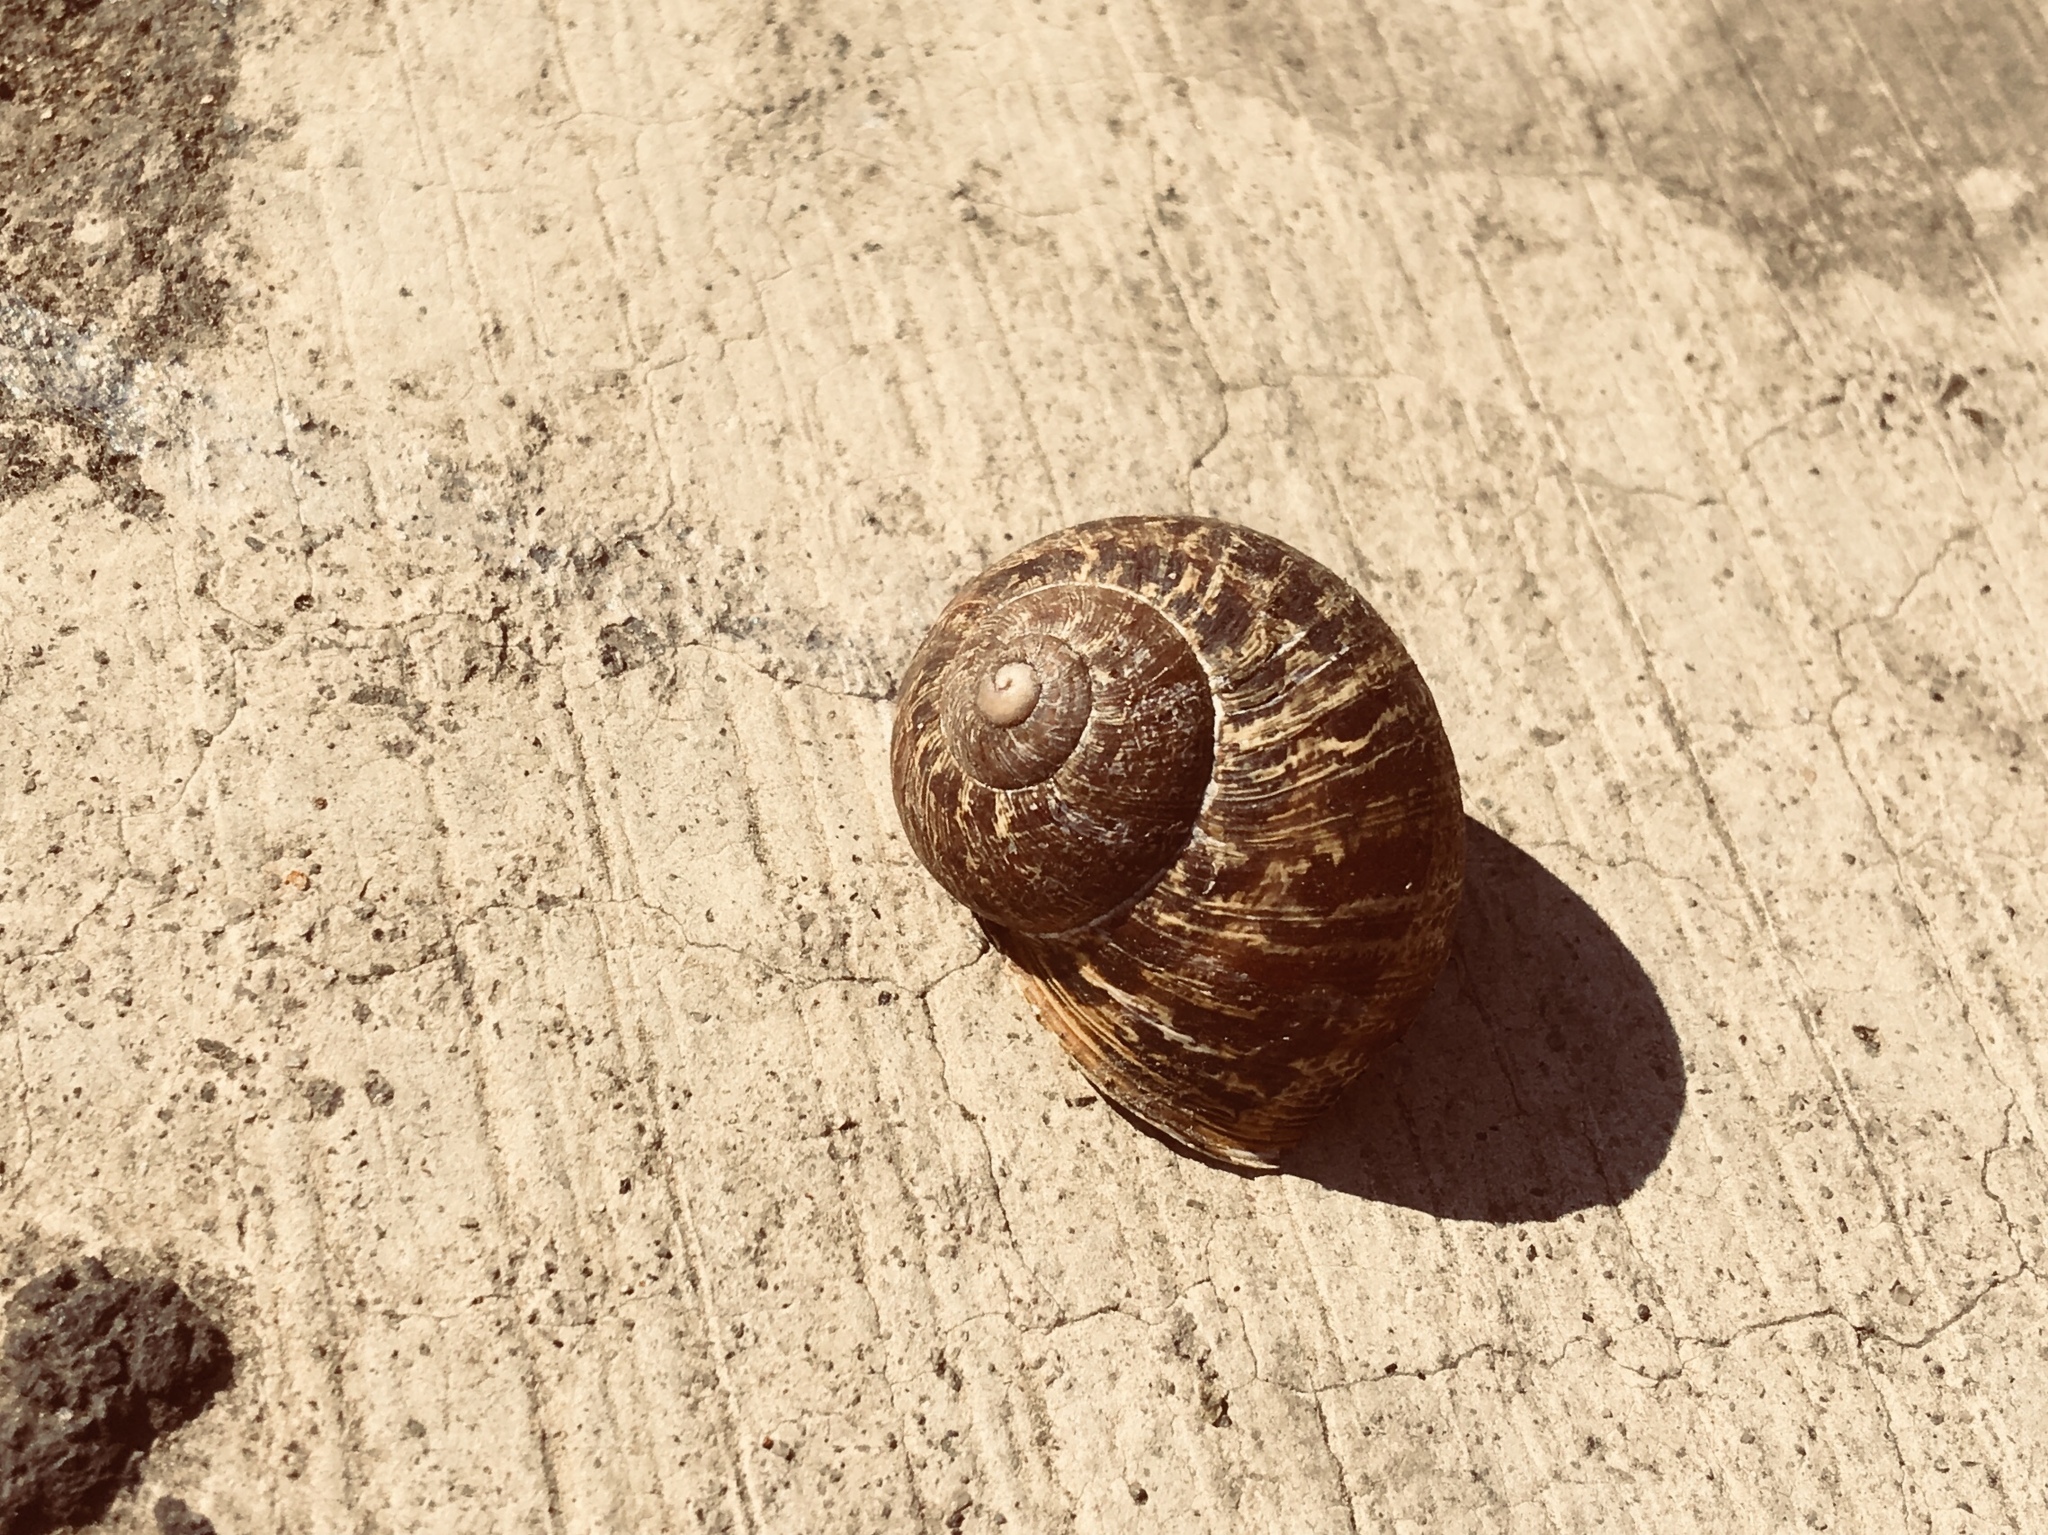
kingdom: Animalia
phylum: Mollusca
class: Gastropoda
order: Stylommatophora
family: Helicidae
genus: Cornu
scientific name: Cornu aspersum
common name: Brown garden snail
